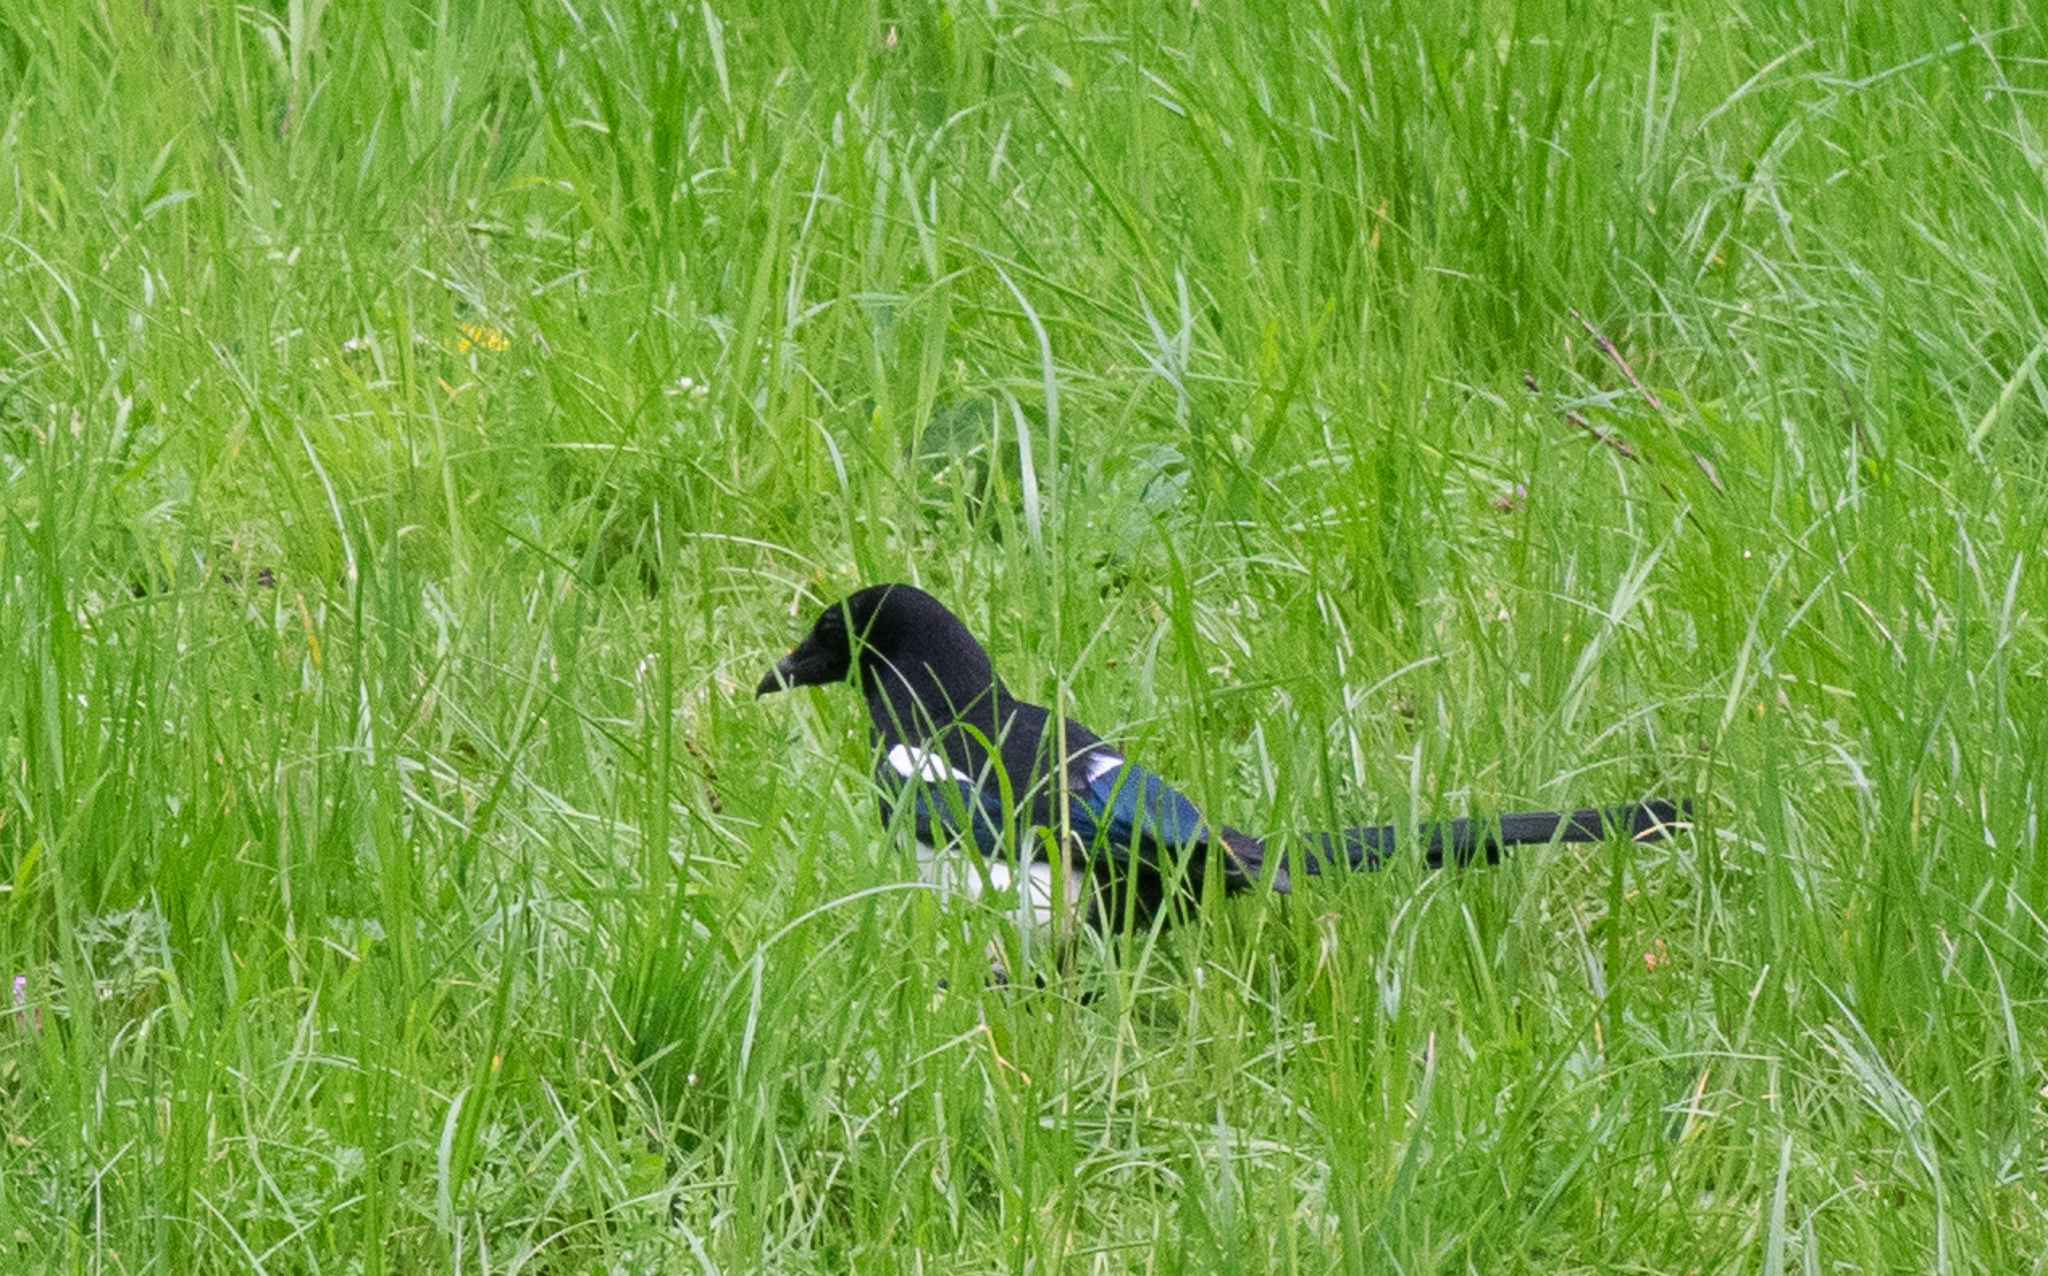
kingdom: Animalia
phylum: Chordata
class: Aves
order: Passeriformes
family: Corvidae
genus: Pica
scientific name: Pica pica
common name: Eurasian magpie
